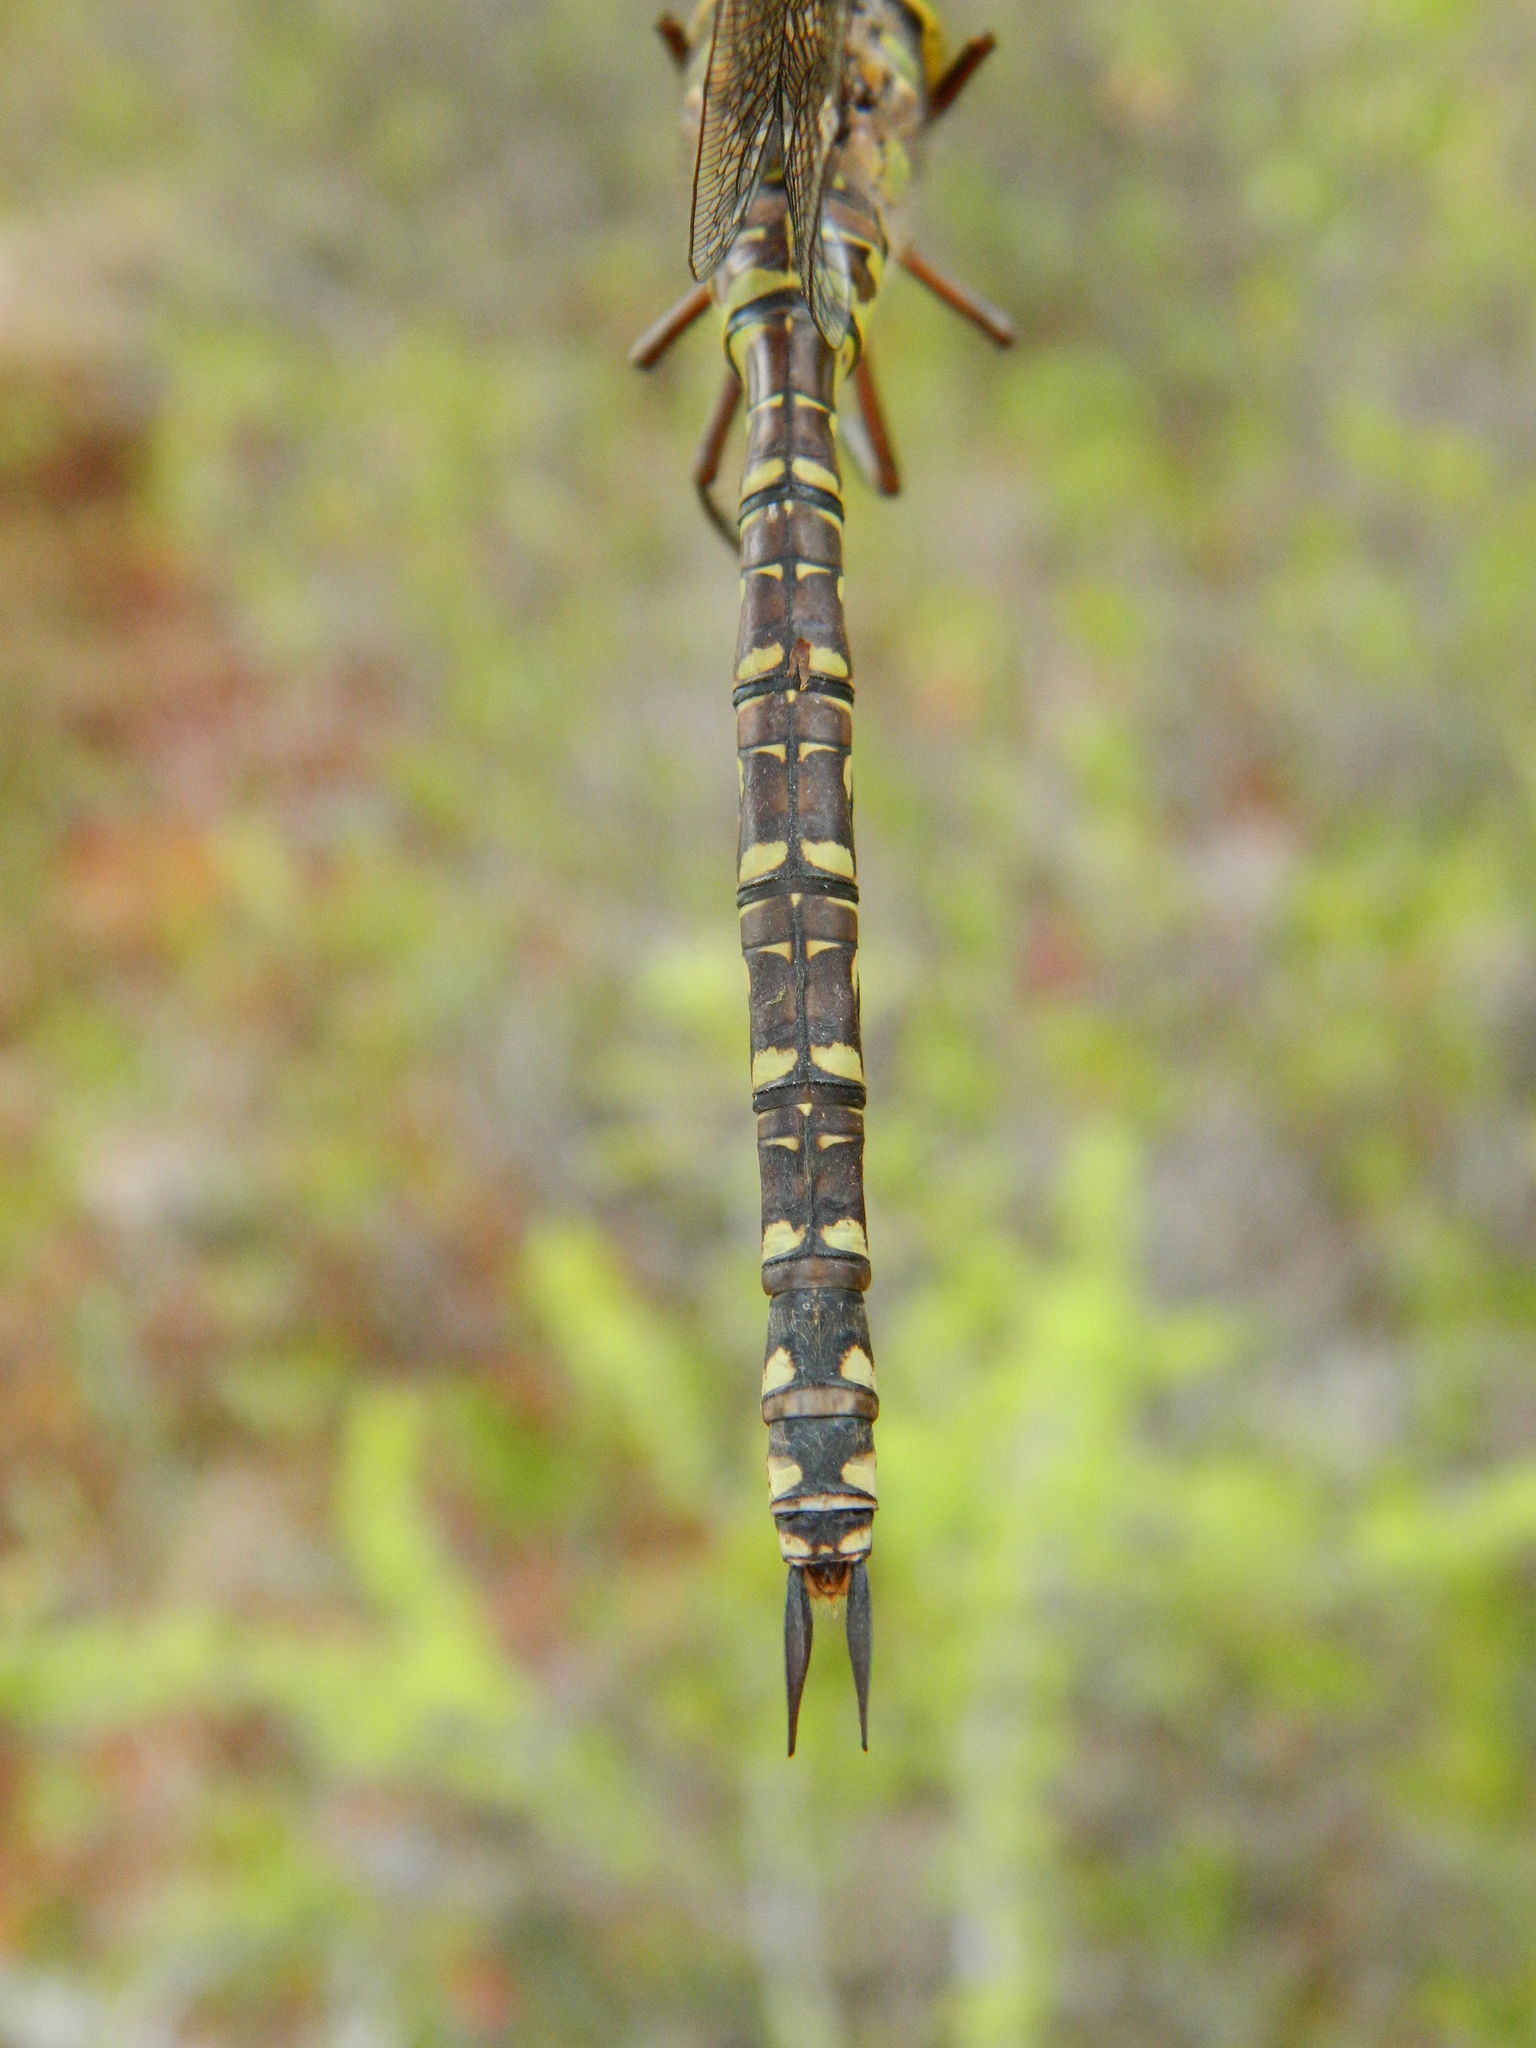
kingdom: Animalia
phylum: Arthropoda
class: Insecta
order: Odonata
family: Aeshnidae
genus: Aeshna
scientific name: Aeshna eremita
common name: Lake darner
